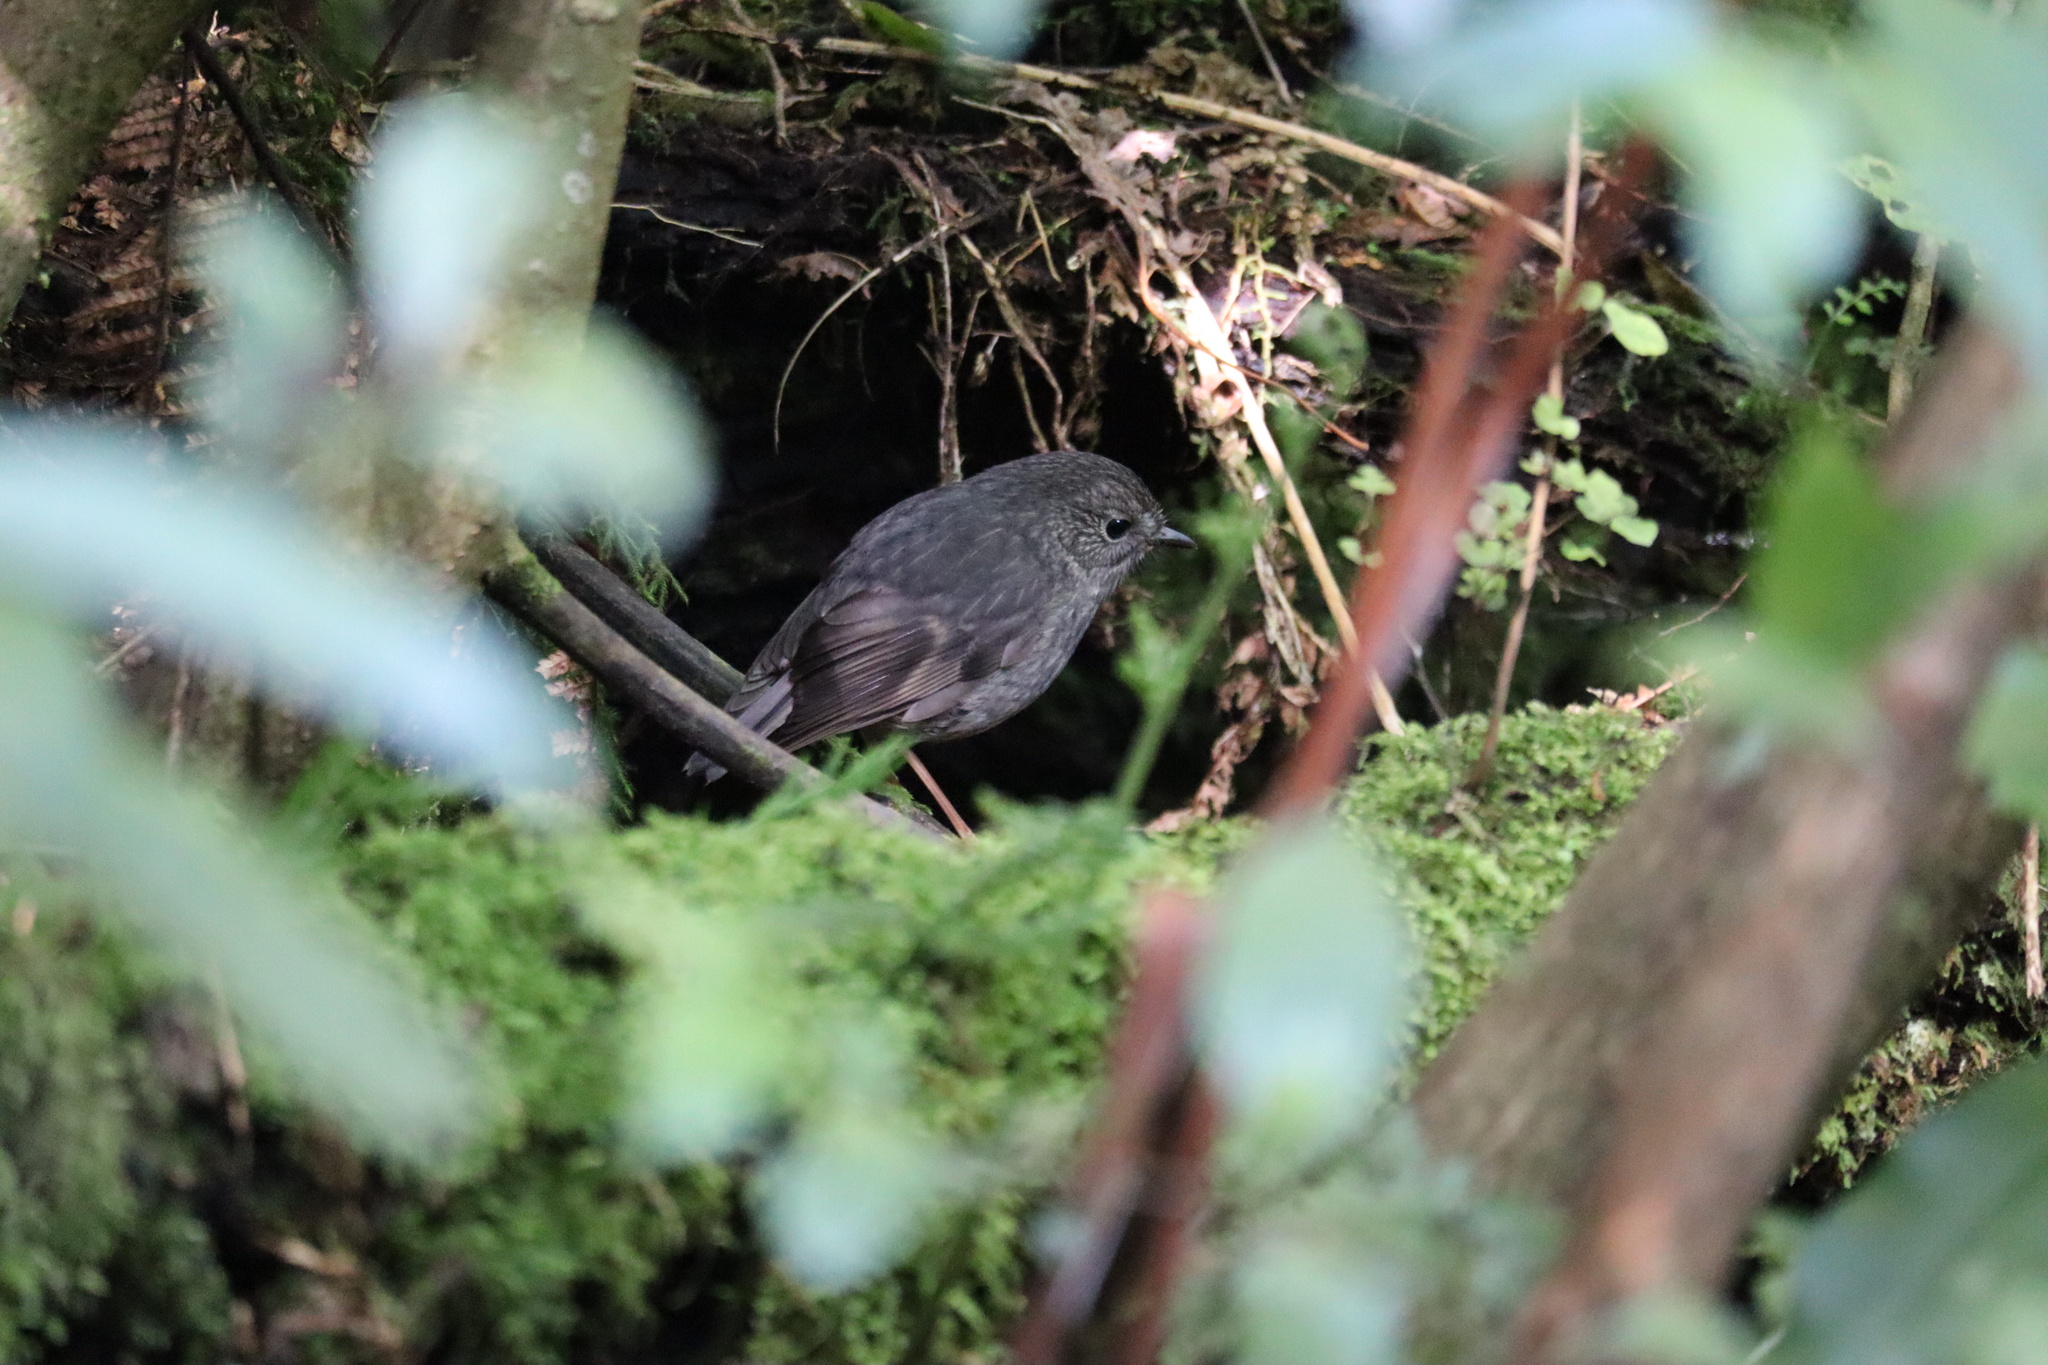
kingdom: Animalia
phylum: Chordata
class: Aves
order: Passeriformes
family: Petroicidae
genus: Petroica
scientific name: Petroica australis
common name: New zealand robin
